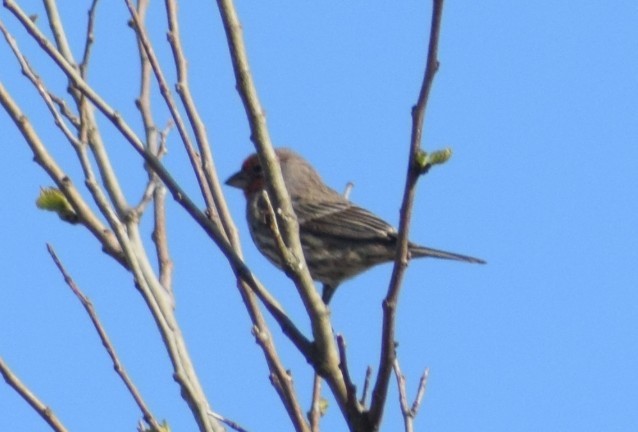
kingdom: Animalia
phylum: Chordata
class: Aves
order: Passeriformes
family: Fringillidae
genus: Haemorhous
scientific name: Haemorhous mexicanus
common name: House finch
